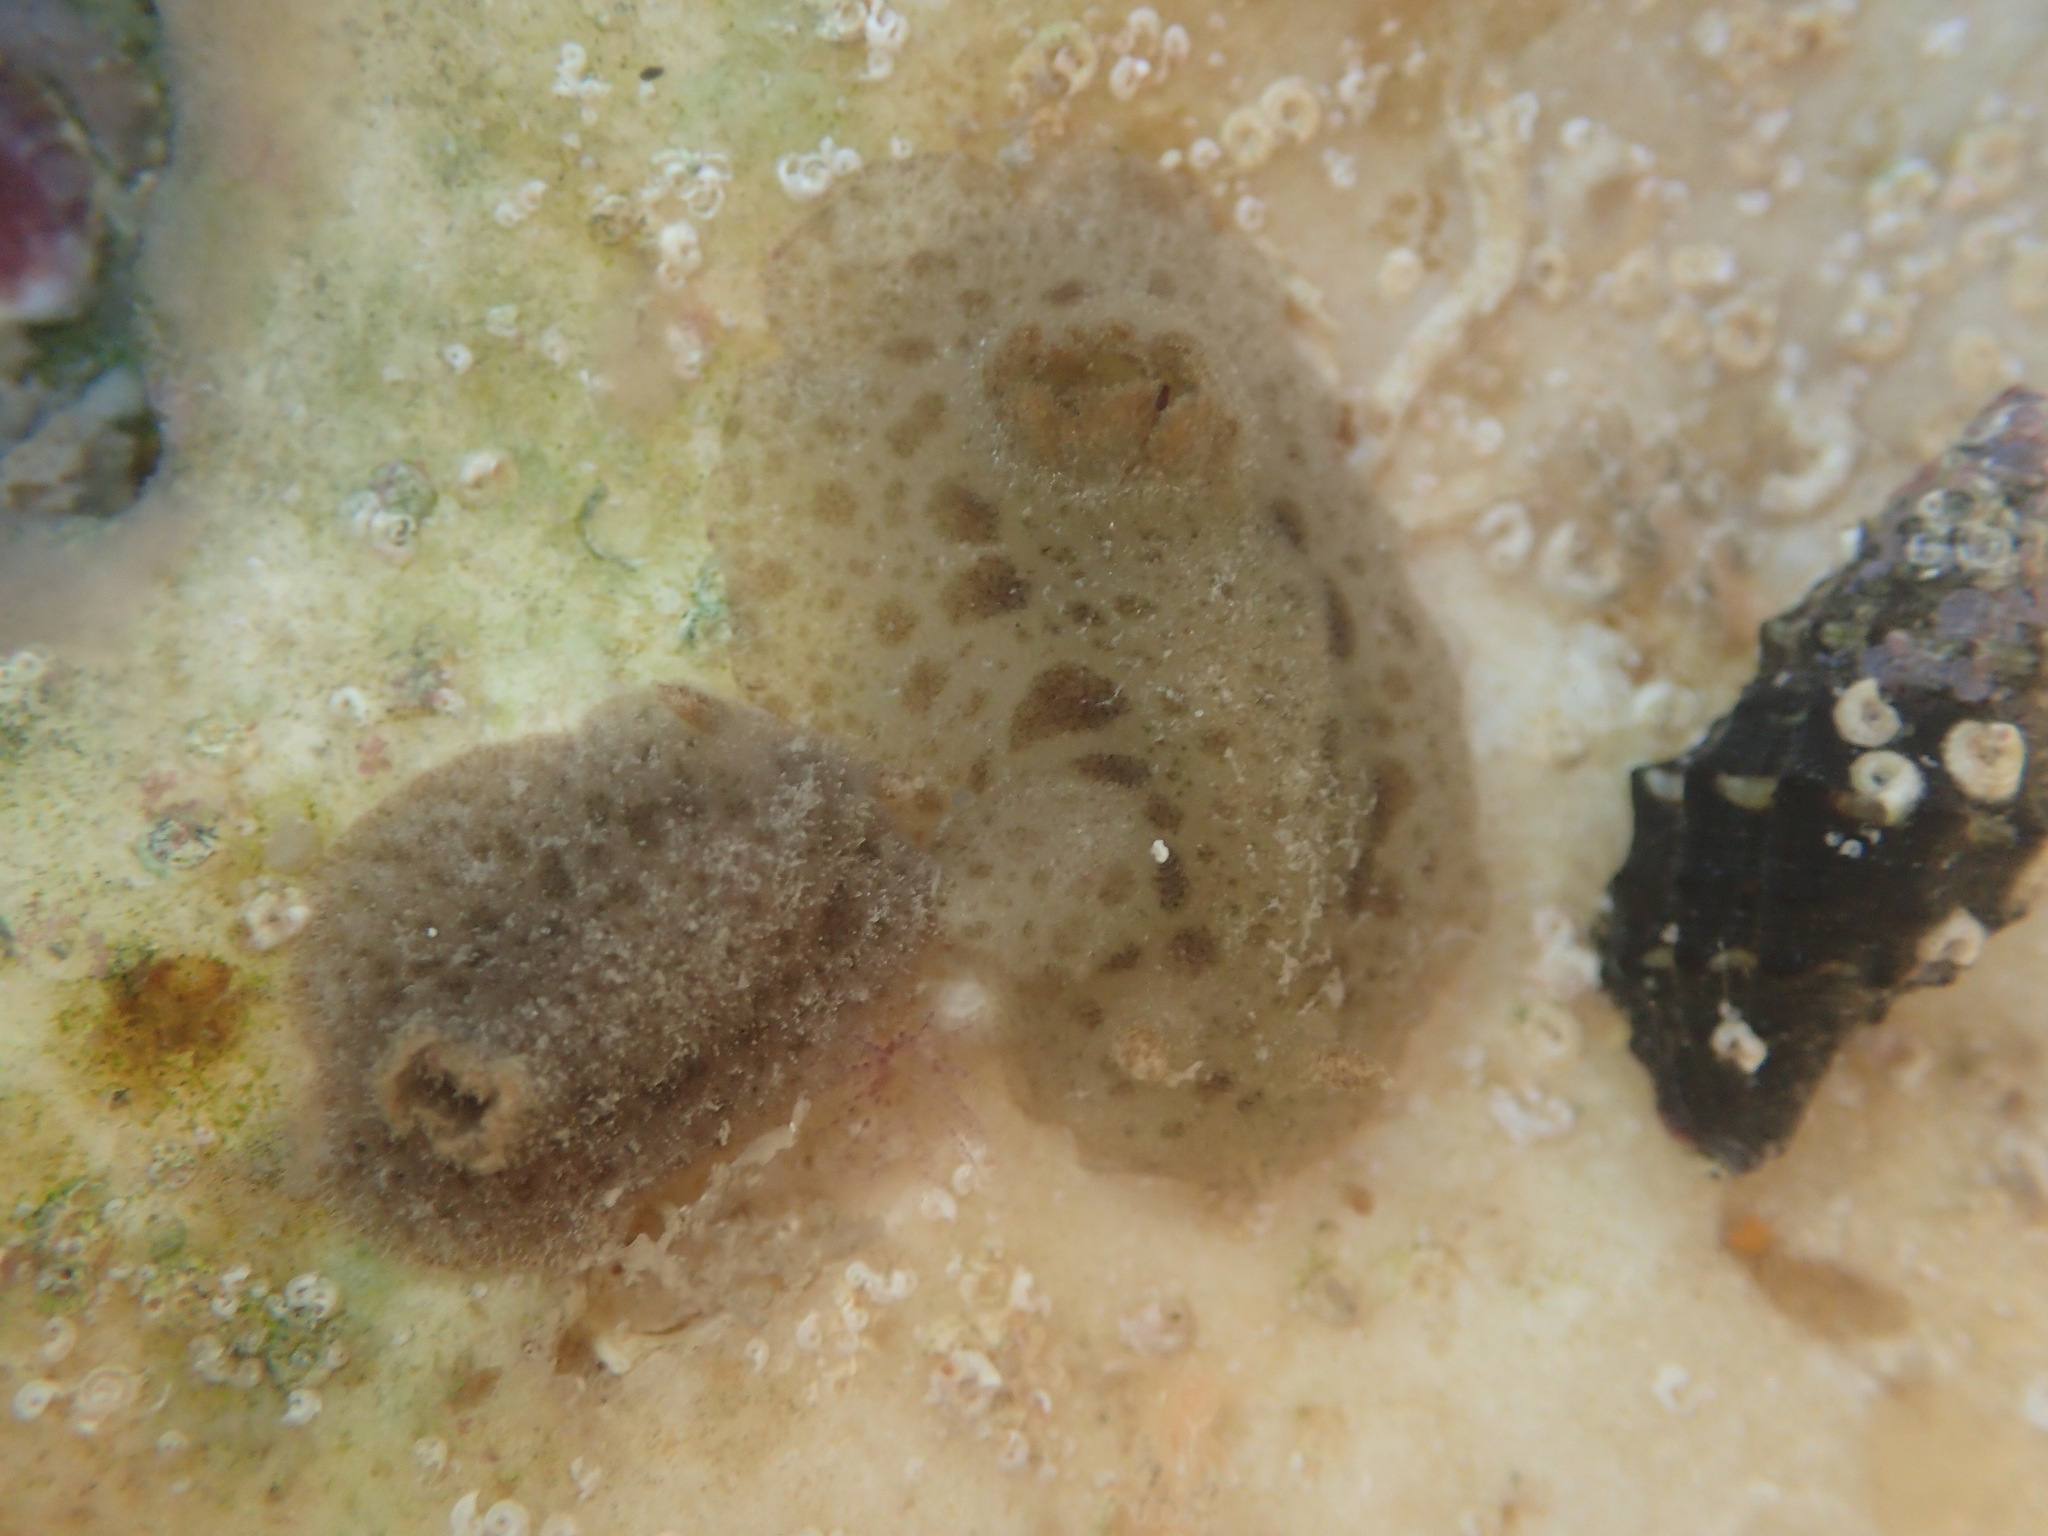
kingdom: Animalia
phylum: Mollusca
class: Gastropoda
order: Nudibranchia
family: Discodorididae
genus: Jorunna
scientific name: Jorunna osae
